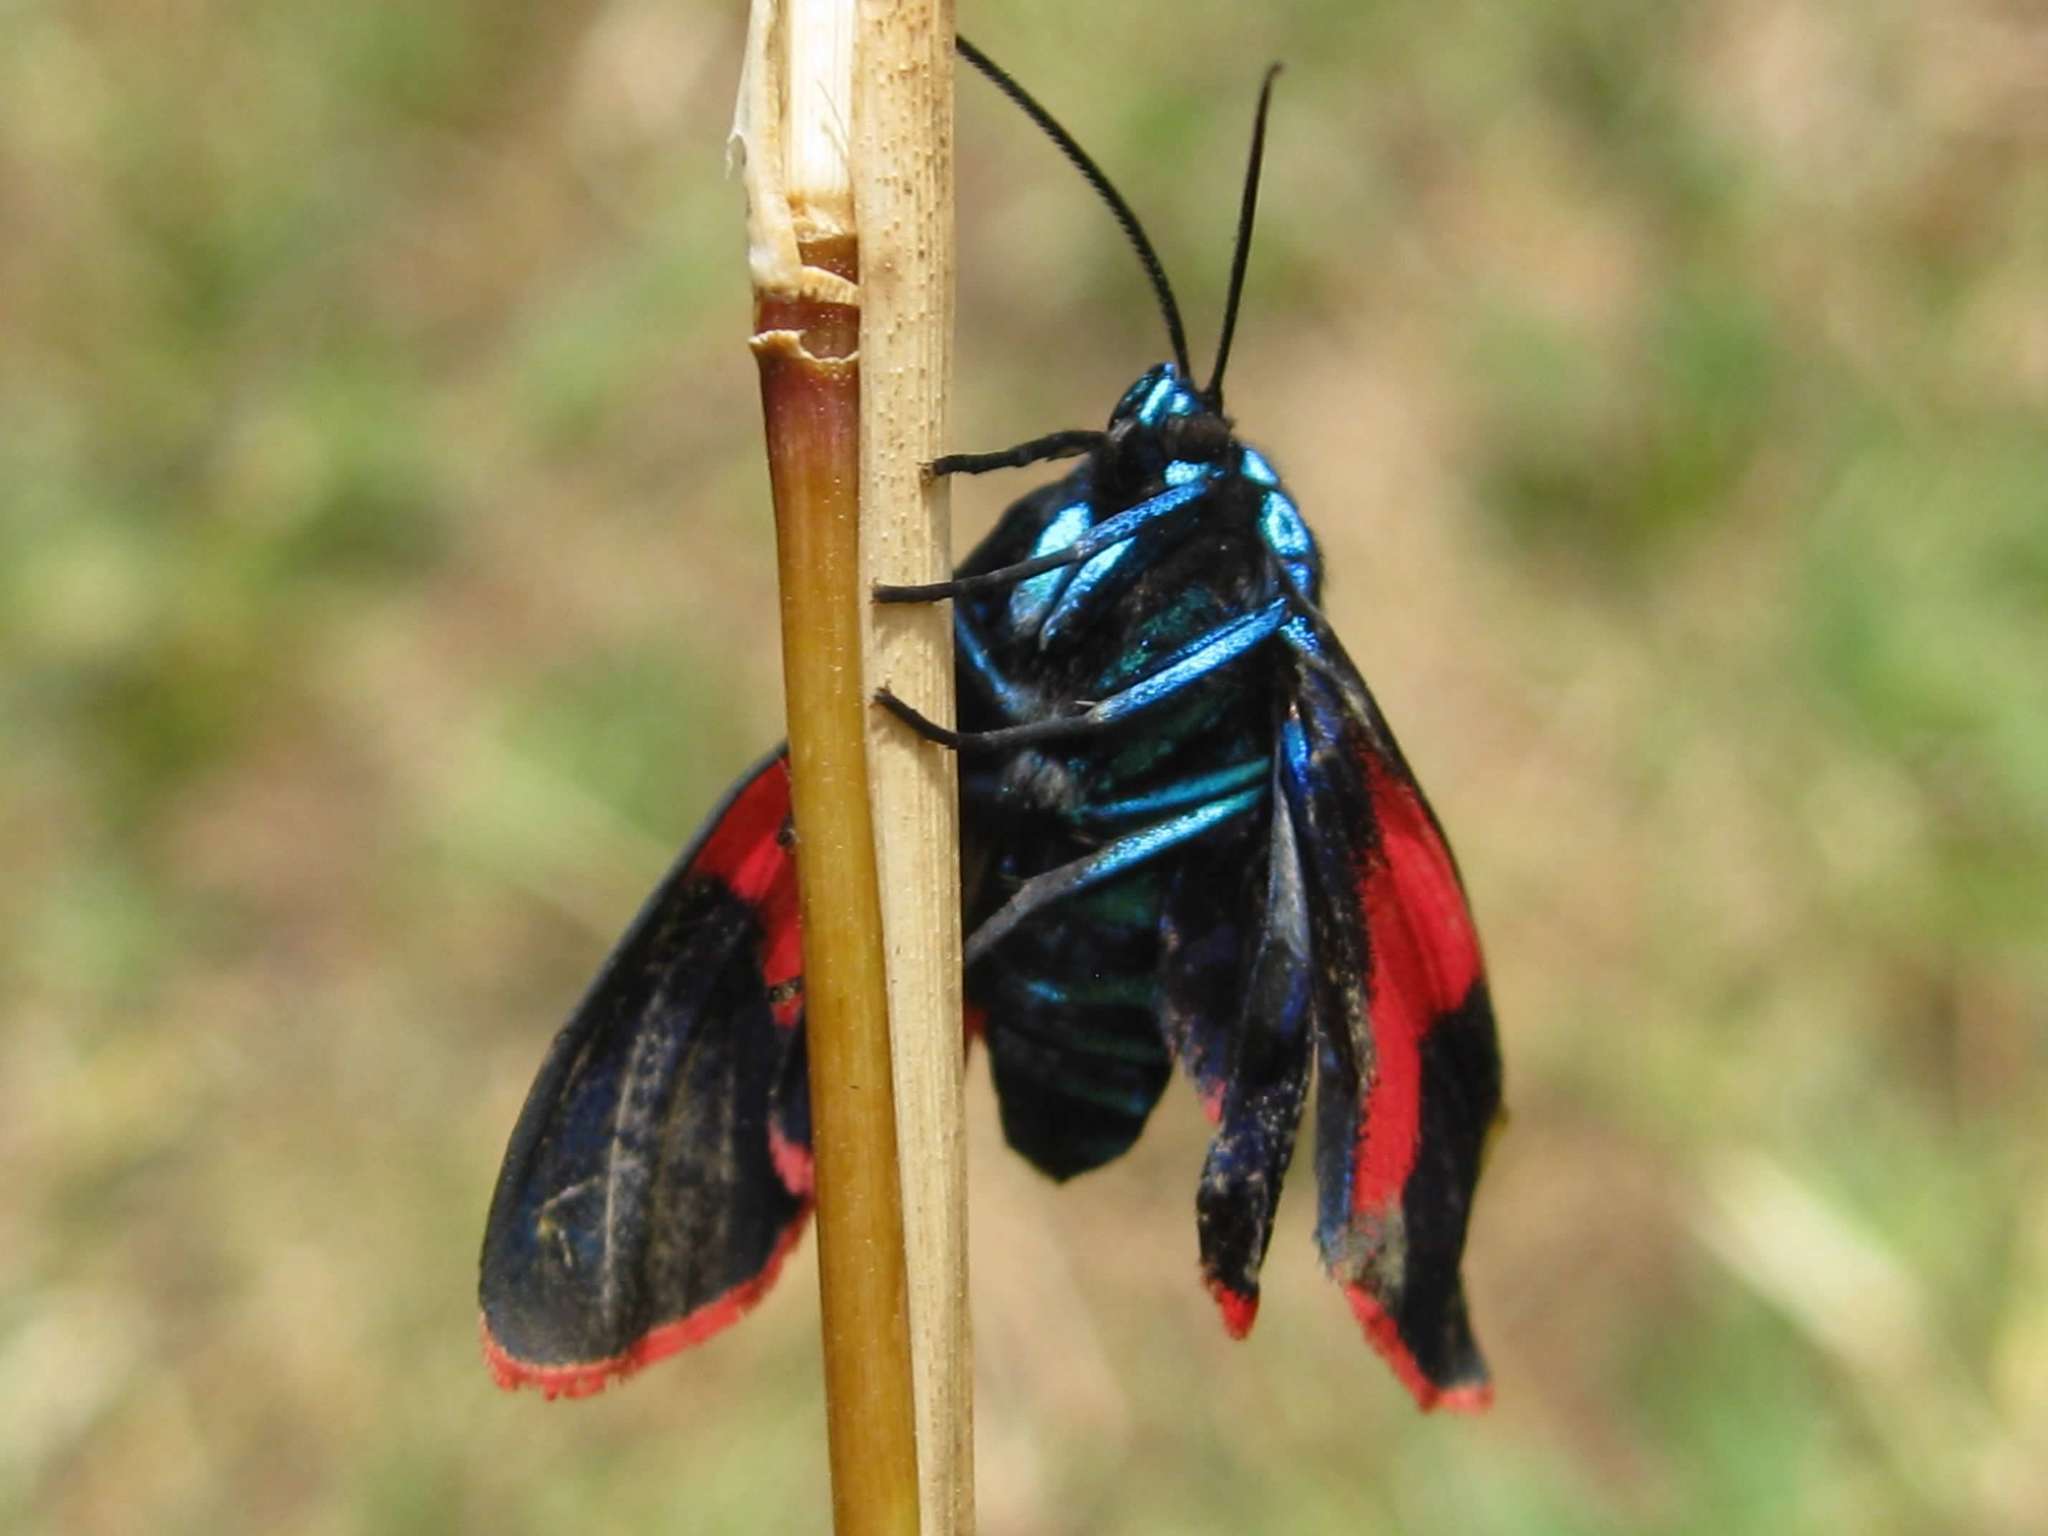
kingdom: Animalia
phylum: Arthropoda
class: Insecta
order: Lepidoptera
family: Erebidae
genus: Cyanopepla
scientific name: Cyanopepla scintillans
